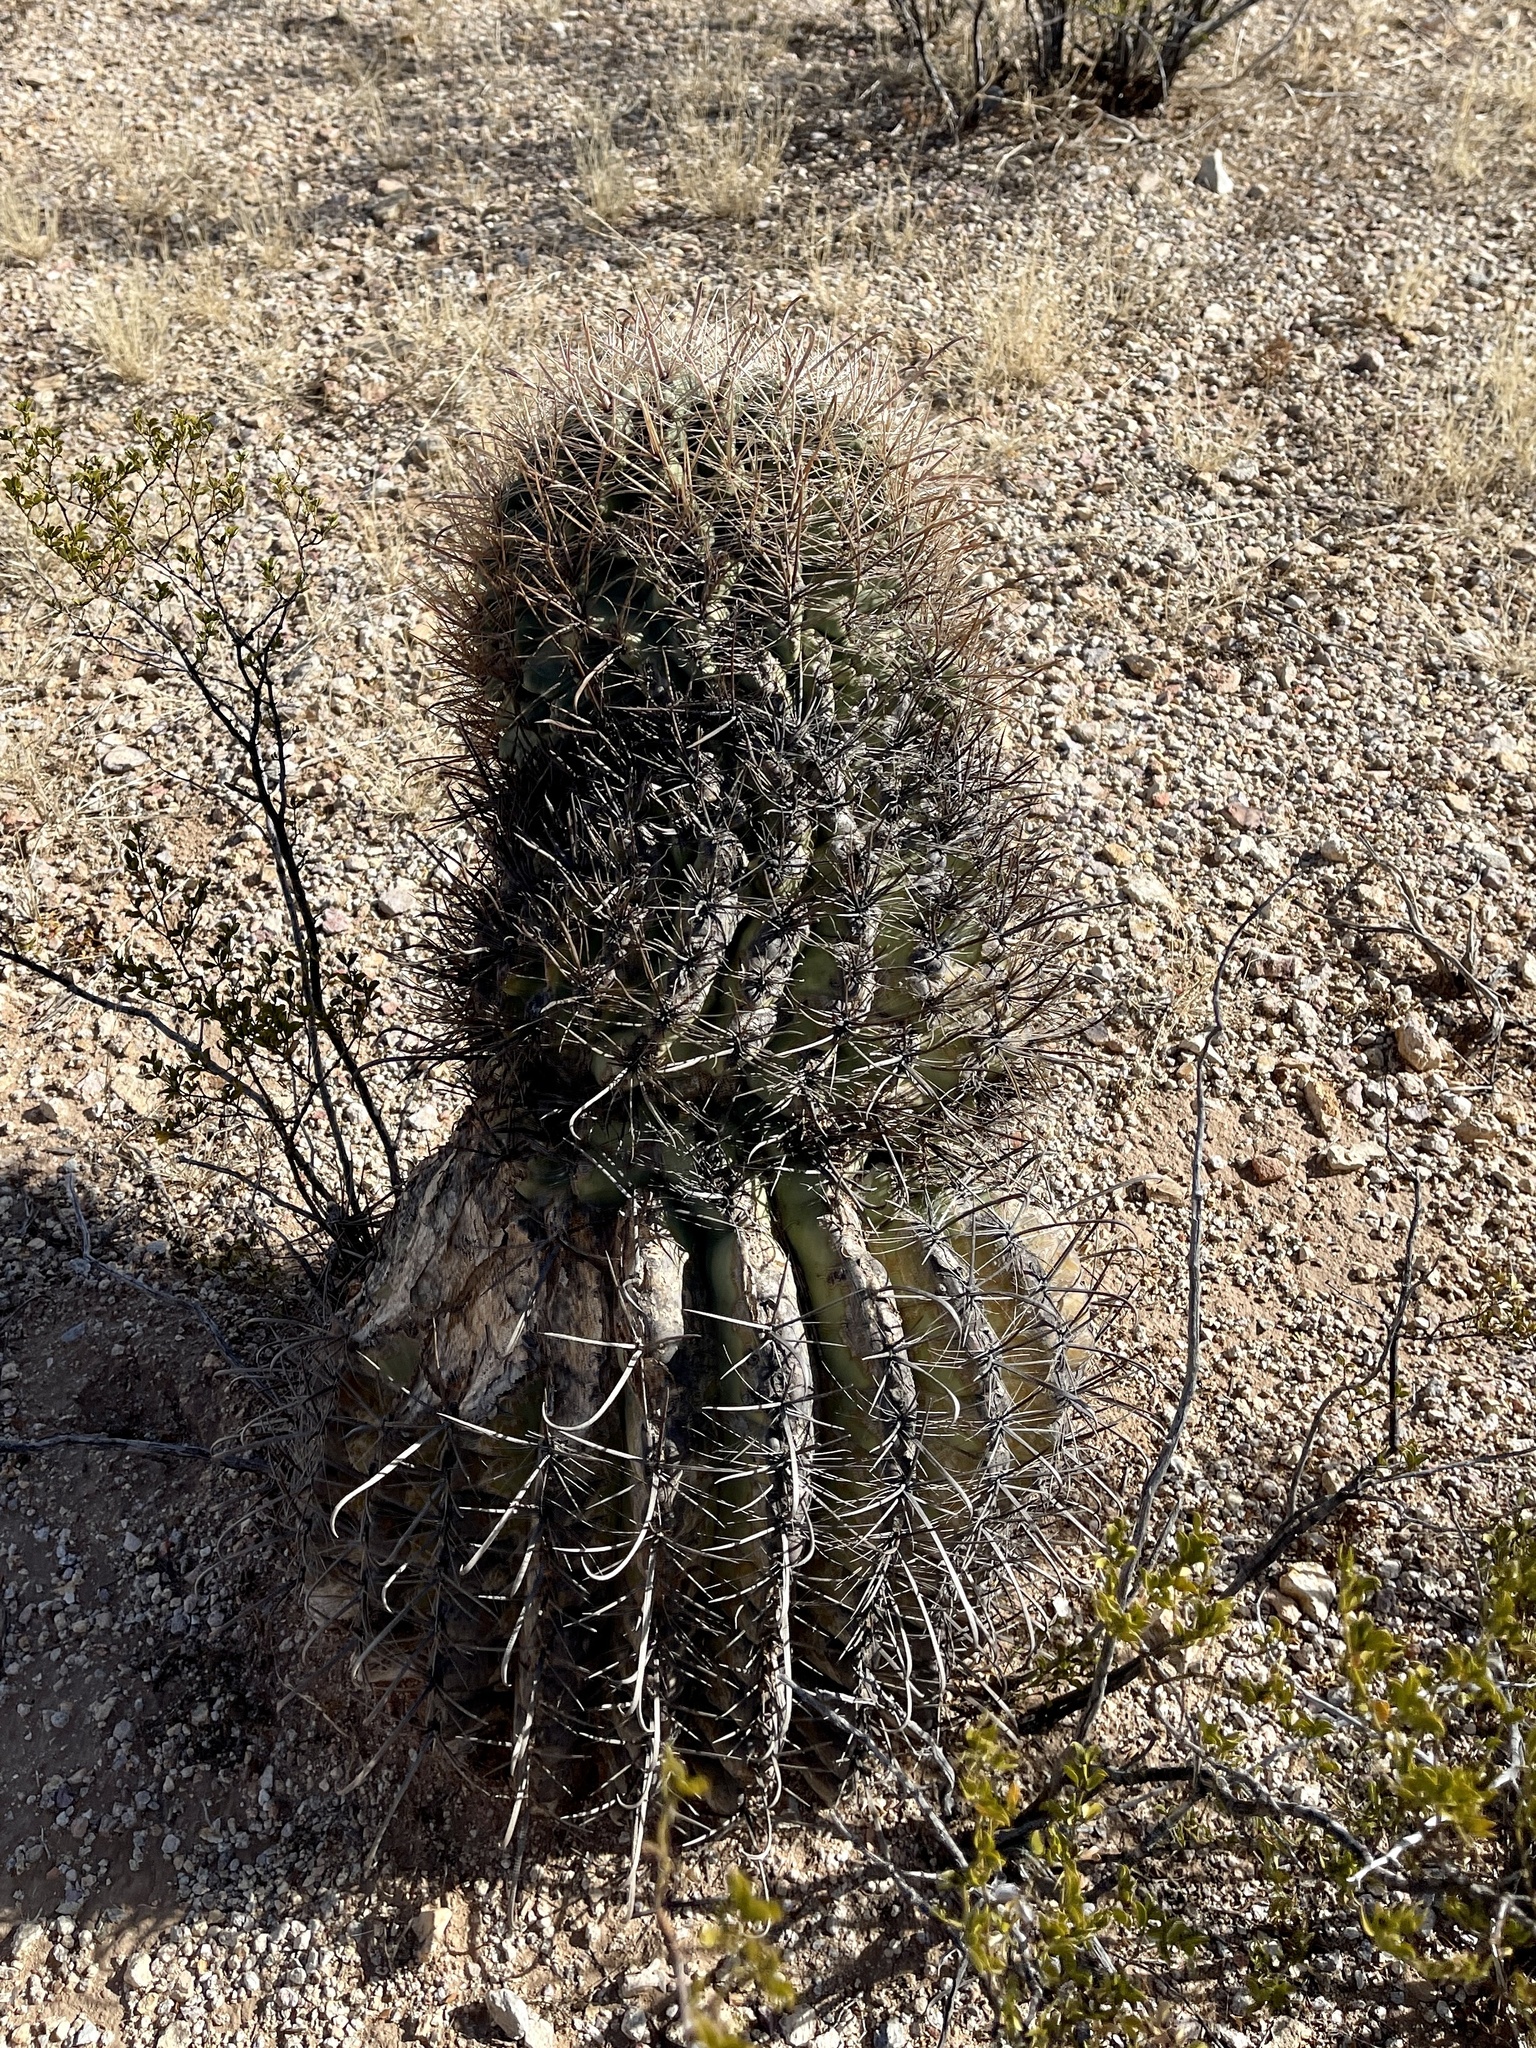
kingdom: Plantae
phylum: Tracheophyta
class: Magnoliopsida
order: Caryophyllales
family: Cactaceae
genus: Ferocactus
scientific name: Ferocactus wislizeni
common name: Candy barrel cactus
